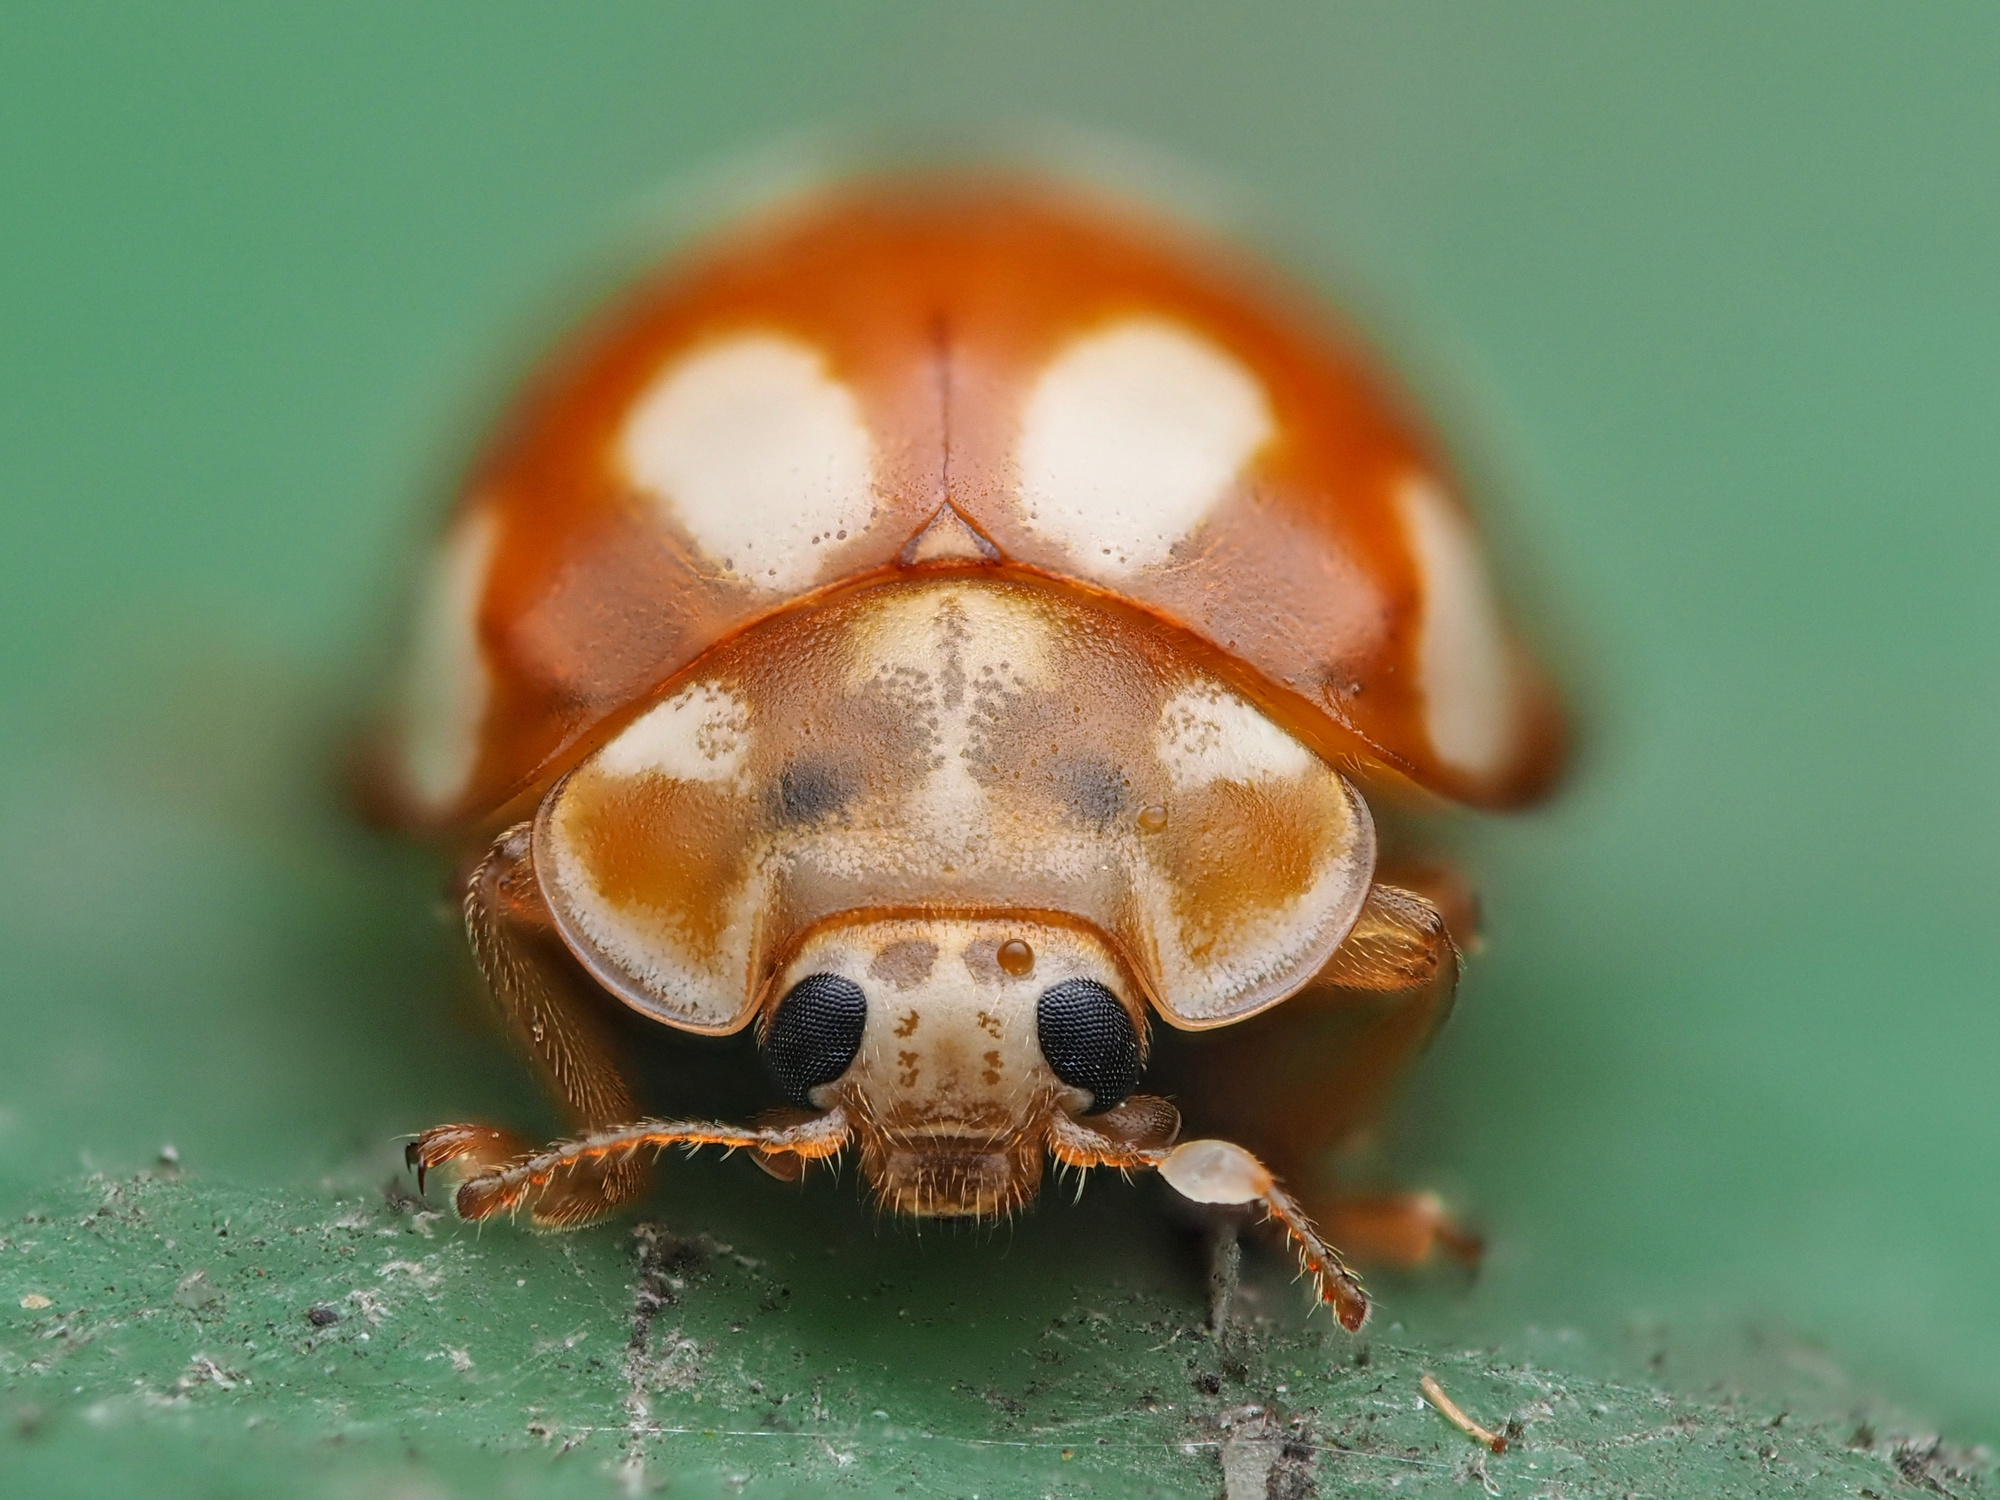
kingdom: Animalia
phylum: Arthropoda
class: Insecta
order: Coleoptera
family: Coccinellidae
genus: Calvia
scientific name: Calvia decemguttata
